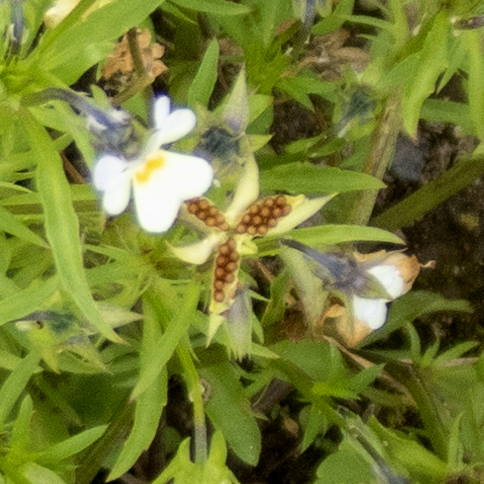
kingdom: Plantae
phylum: Tracheophyta
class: Magnoliopsida
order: Malpighiales
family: Violaceae
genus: Viola
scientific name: Viola arvensis
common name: Field pansy
